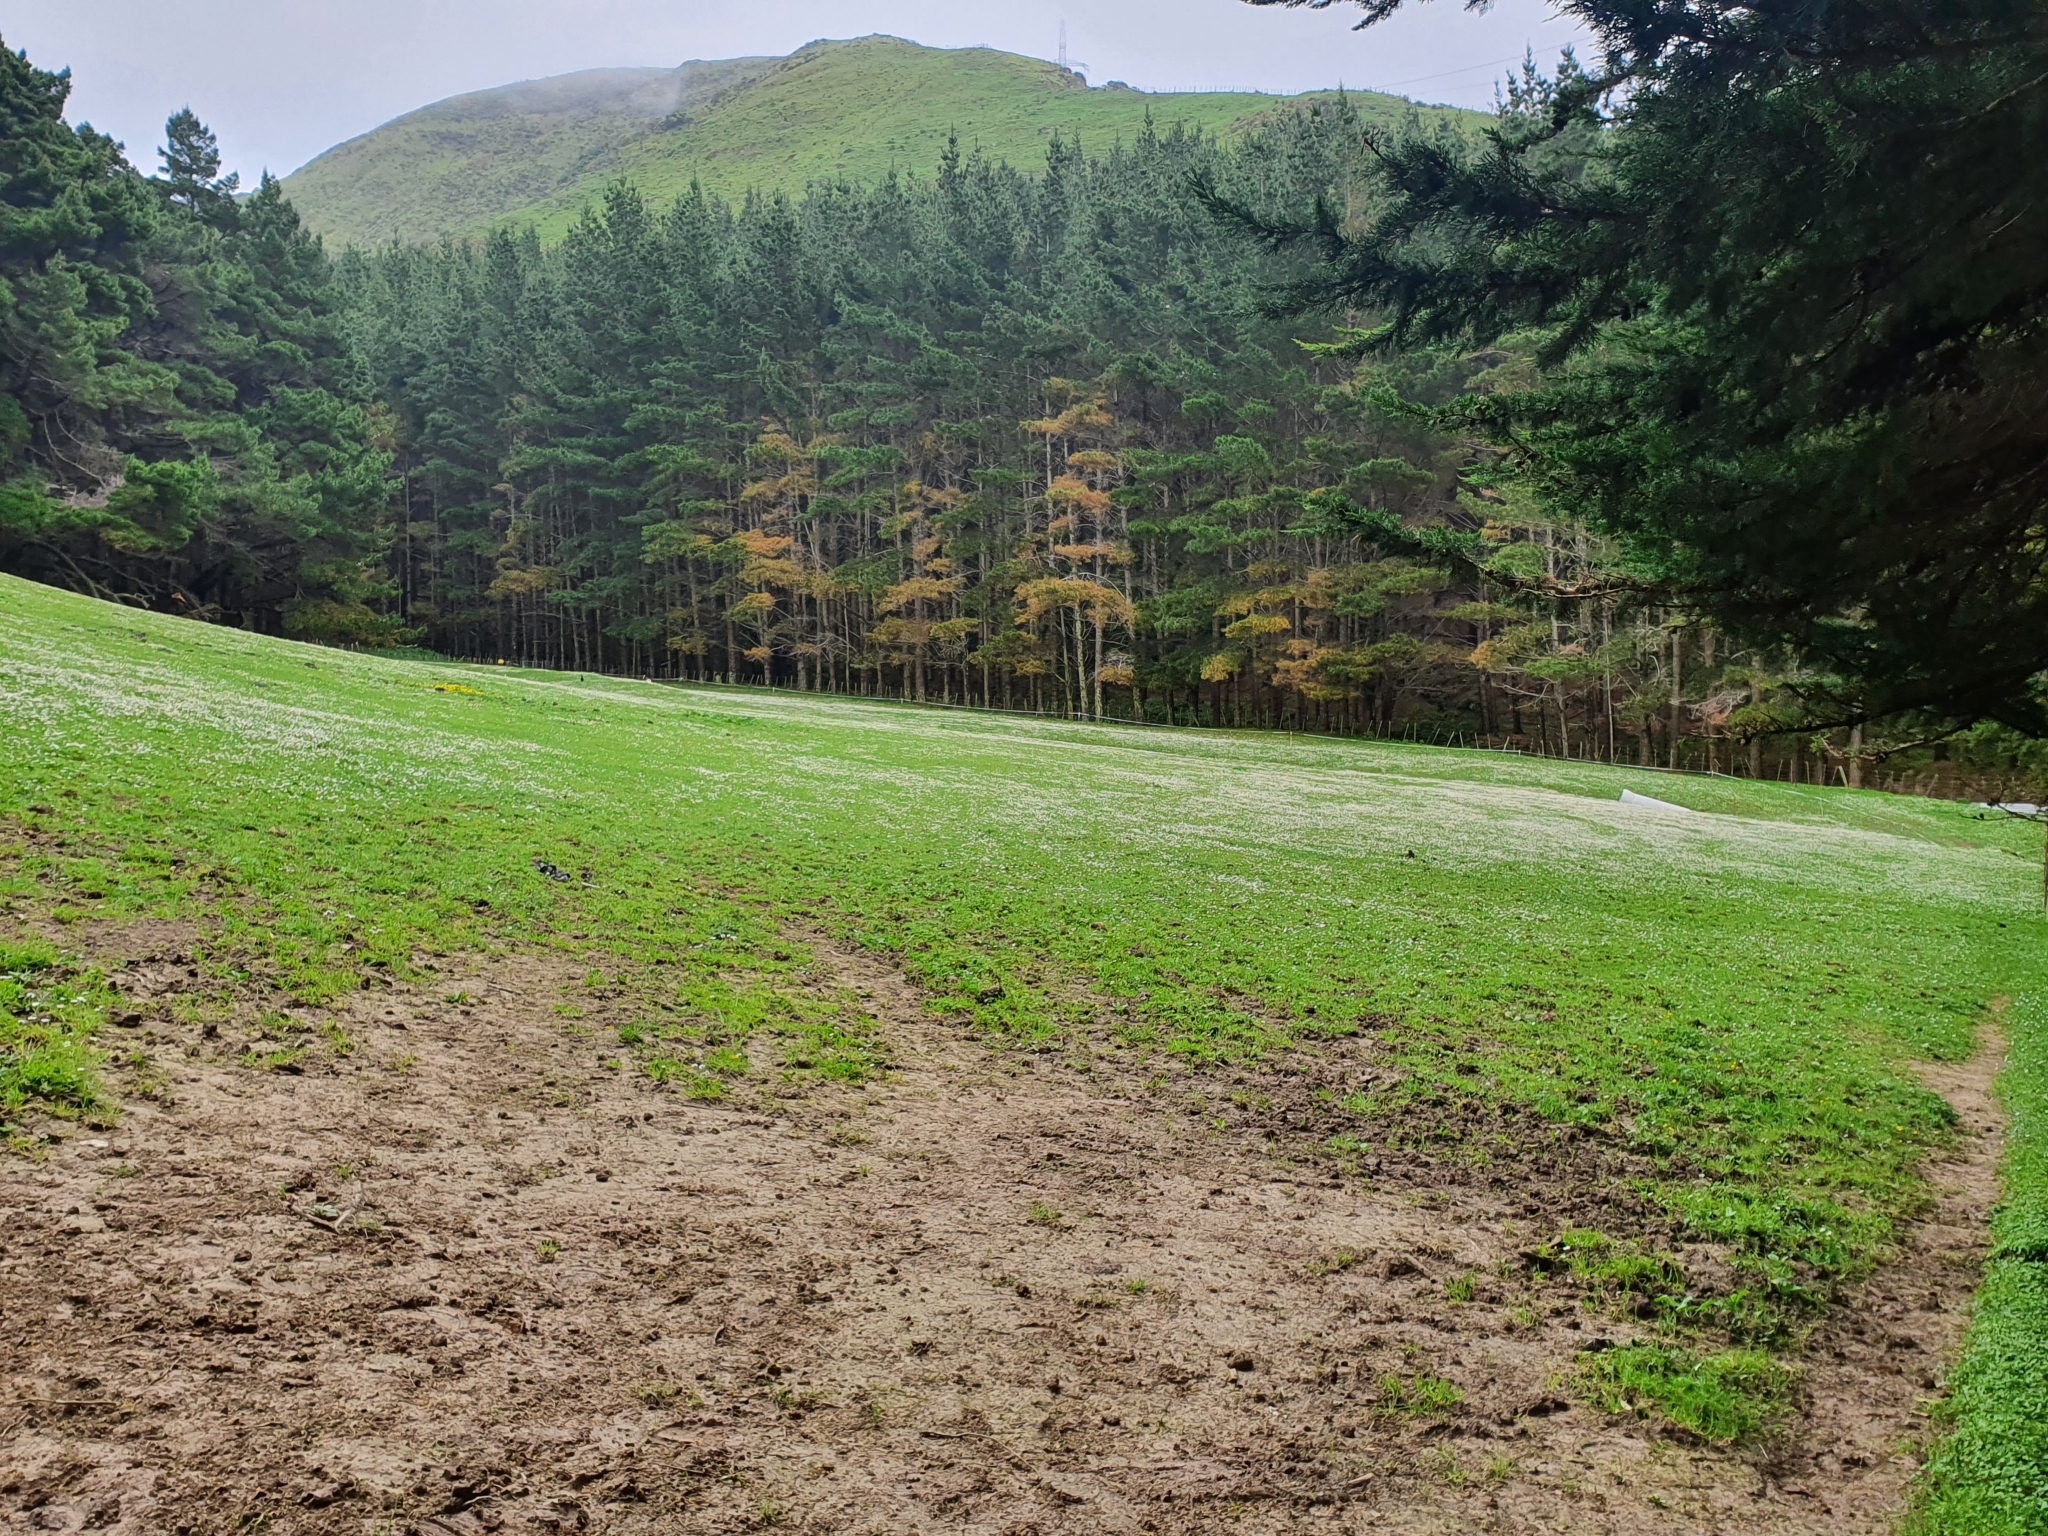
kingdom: Plantae
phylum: Tracheophyta
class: Magnoliopsida
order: Asterales
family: Asteraceae
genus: Bellis
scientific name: Bellis perennis
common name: Lawndaisy
